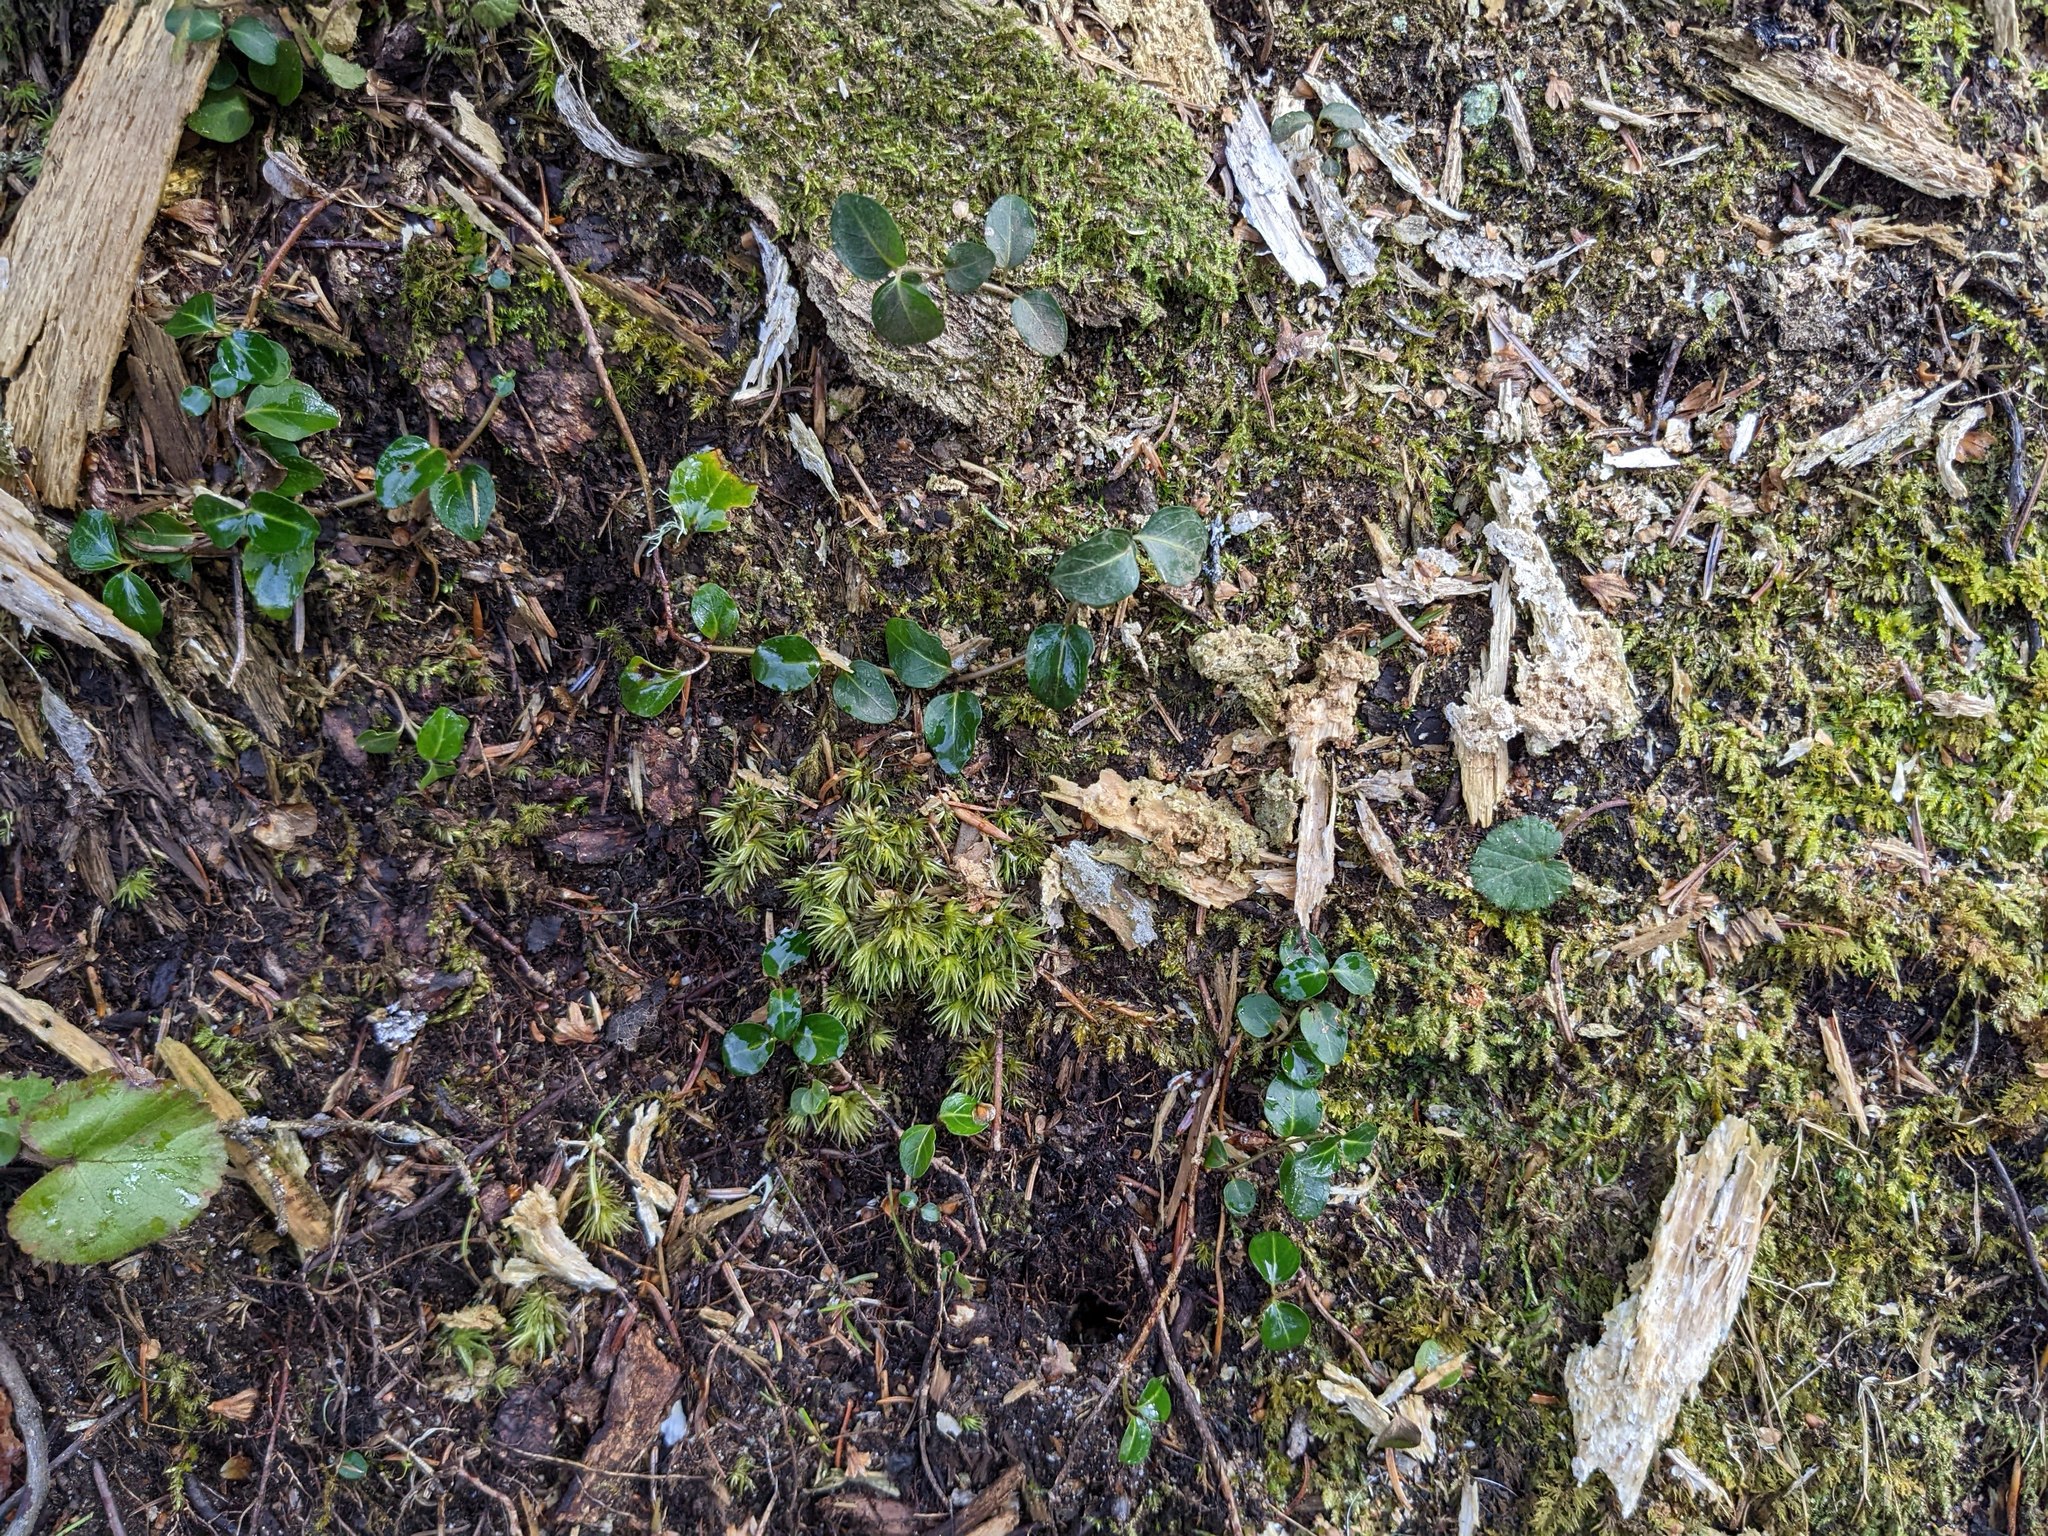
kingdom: Plantae
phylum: Tracheophyta
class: Magnoliopsida
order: Gentianales
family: Rubiaceae
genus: Mitchella
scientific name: Mitchella repens
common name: Partridge-berry
